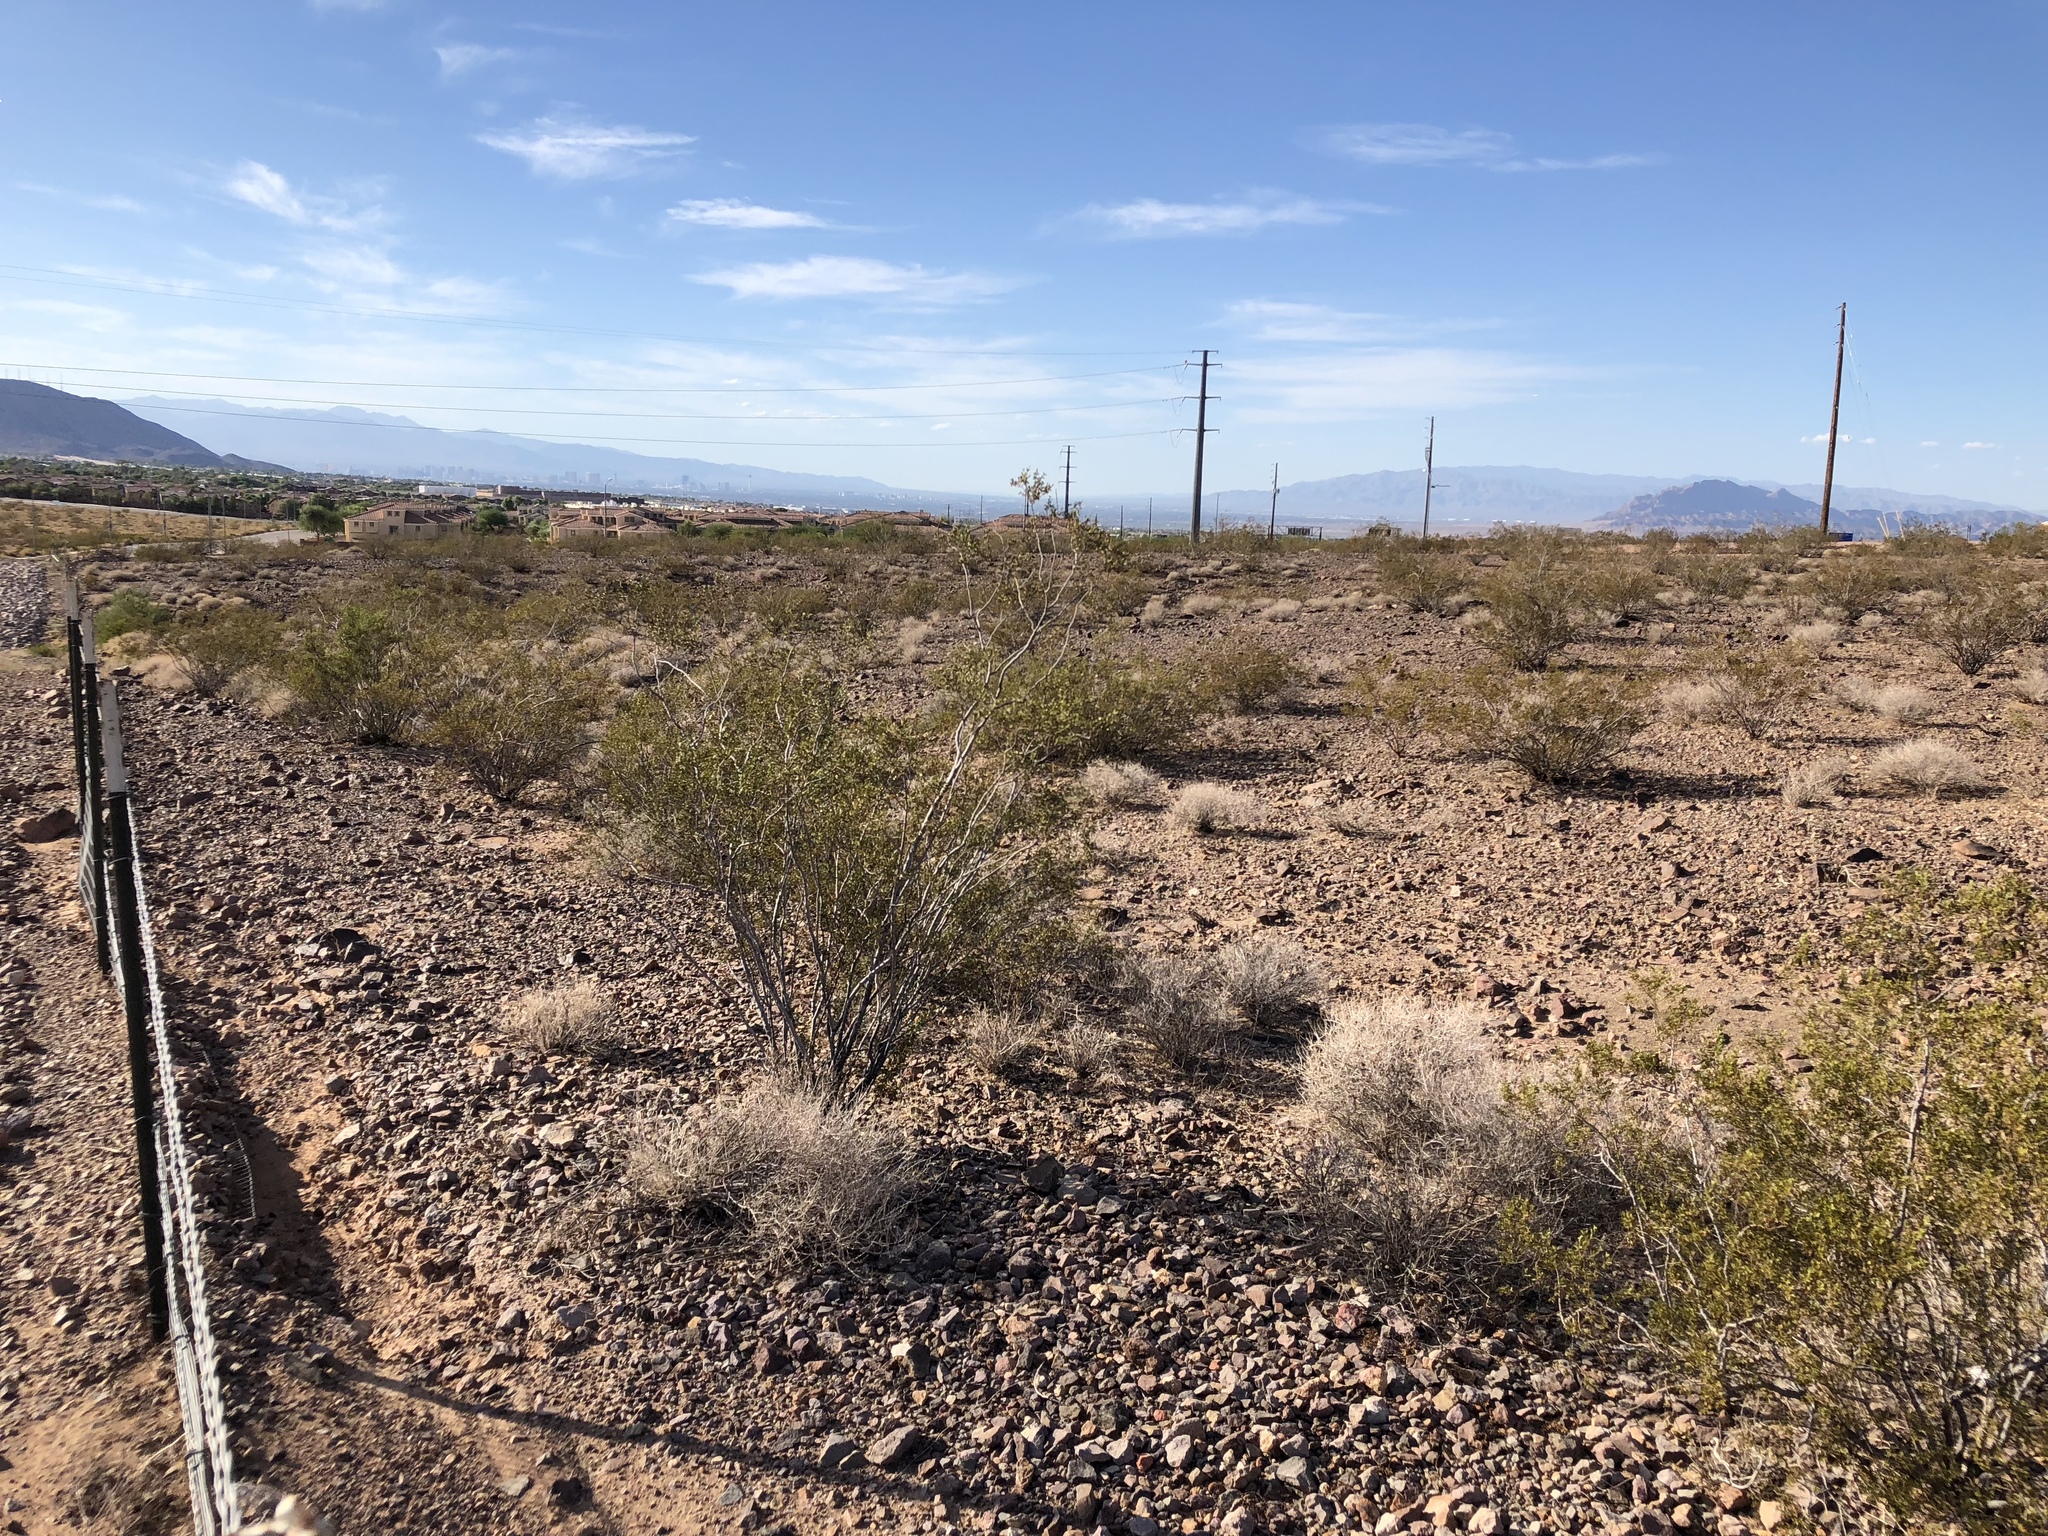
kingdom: Plantae
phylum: Tracheophyta
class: Magnoliopsida
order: Zygophyllales
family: Zygophyllaceae
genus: Larrea
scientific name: Larrea tridentata
